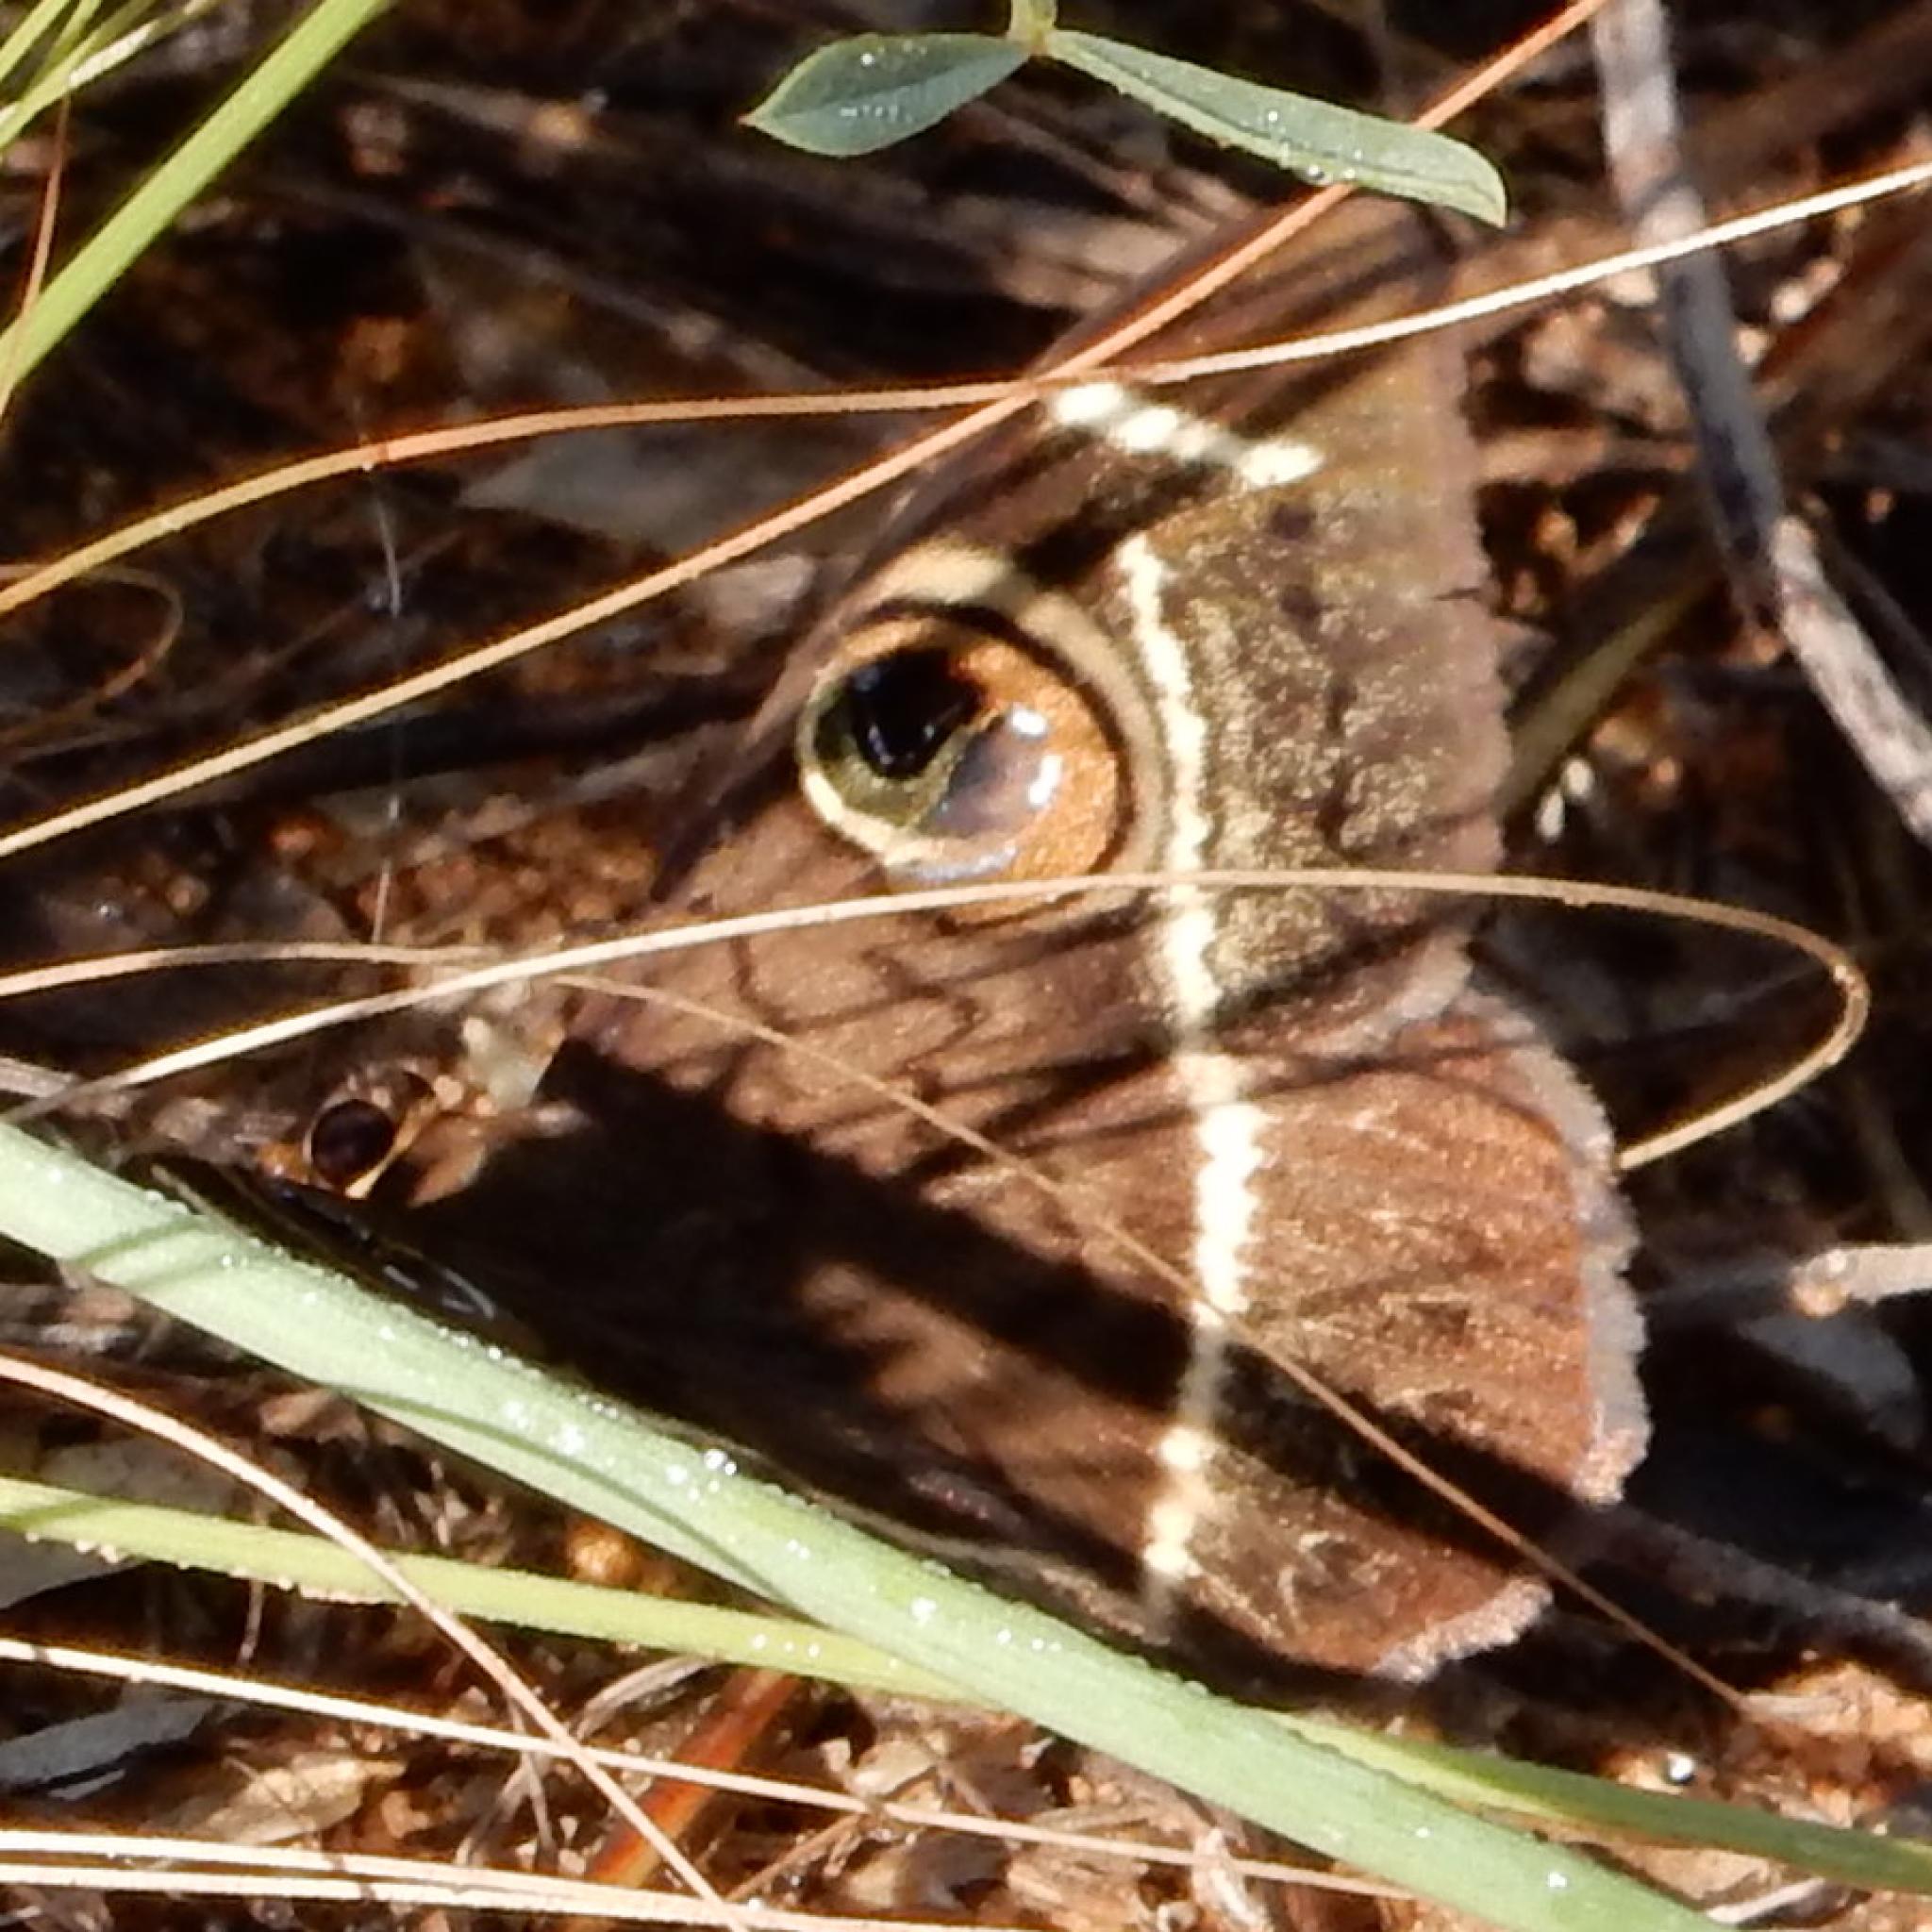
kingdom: Animalia
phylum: Arthropoda
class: Insecta
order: Lepidoptera
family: Erebidae
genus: Cyligramma
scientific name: Cyligramma latona
